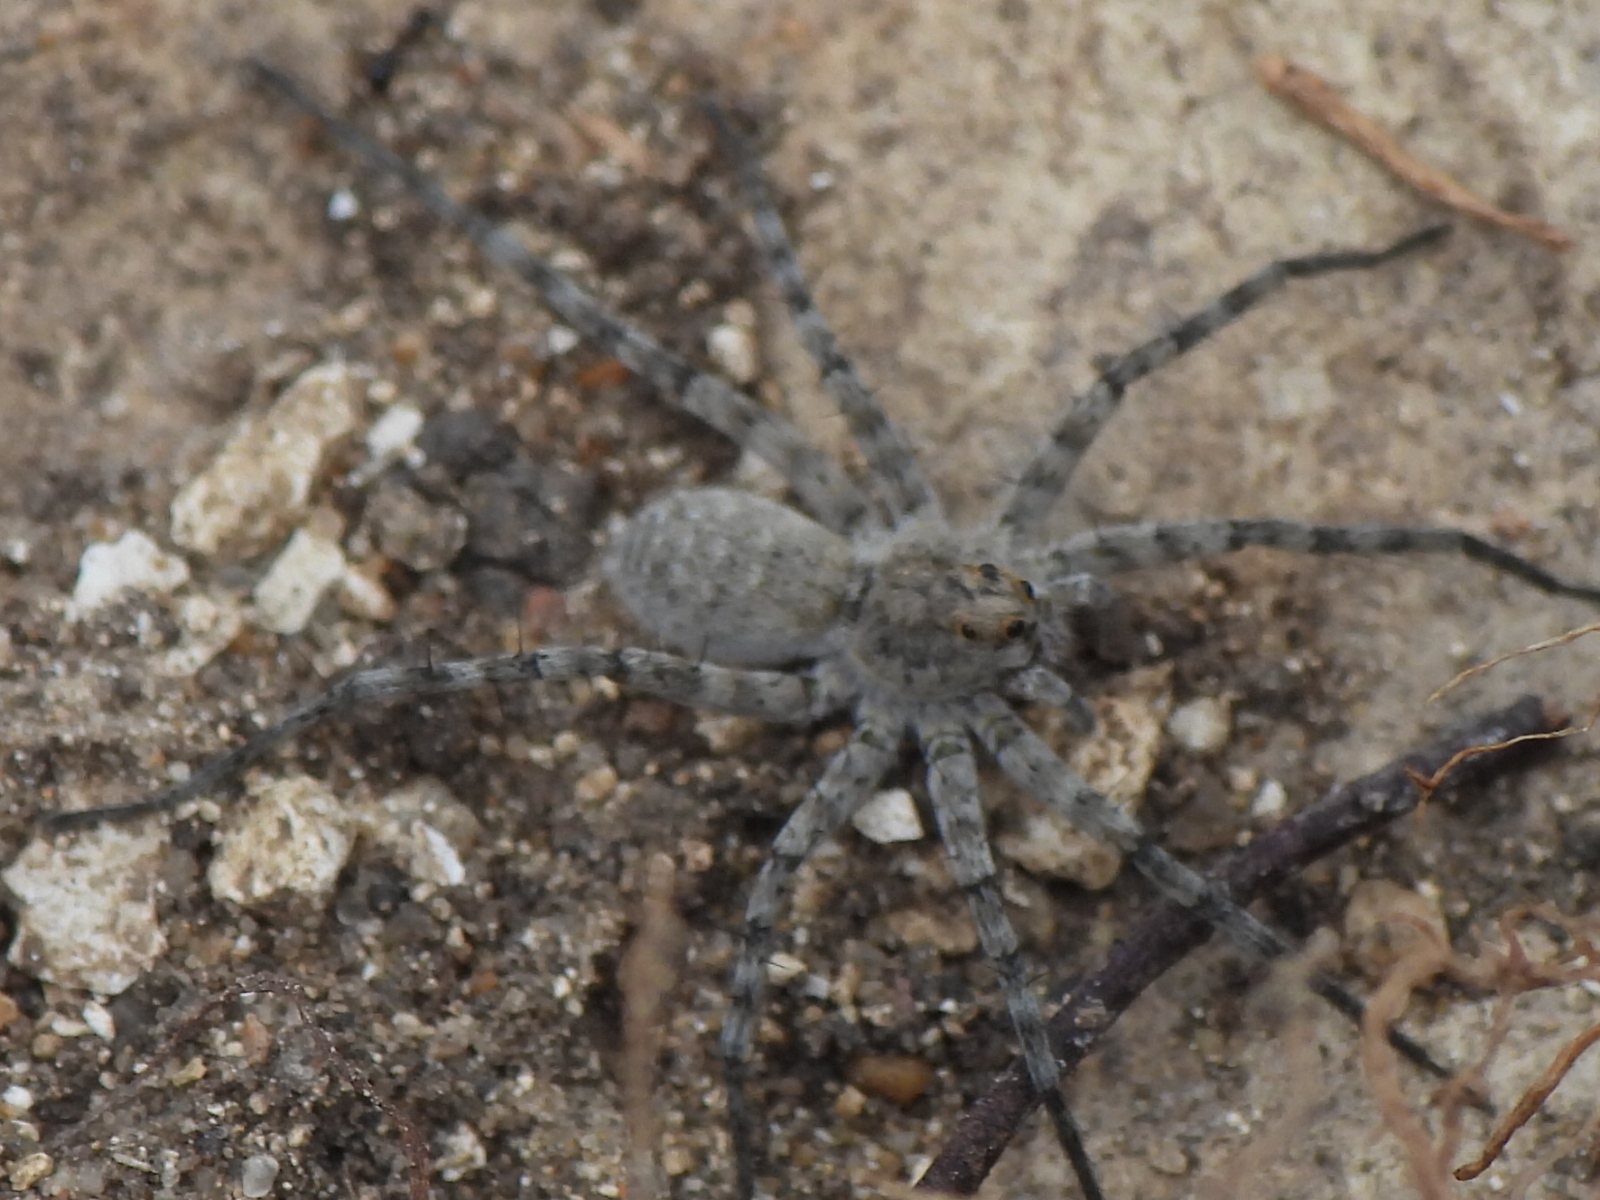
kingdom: Animalia
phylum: Arthropoda
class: Arachnida
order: Araneae
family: Lycosidae
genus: Pardosa
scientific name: Pardosa mercurialis
